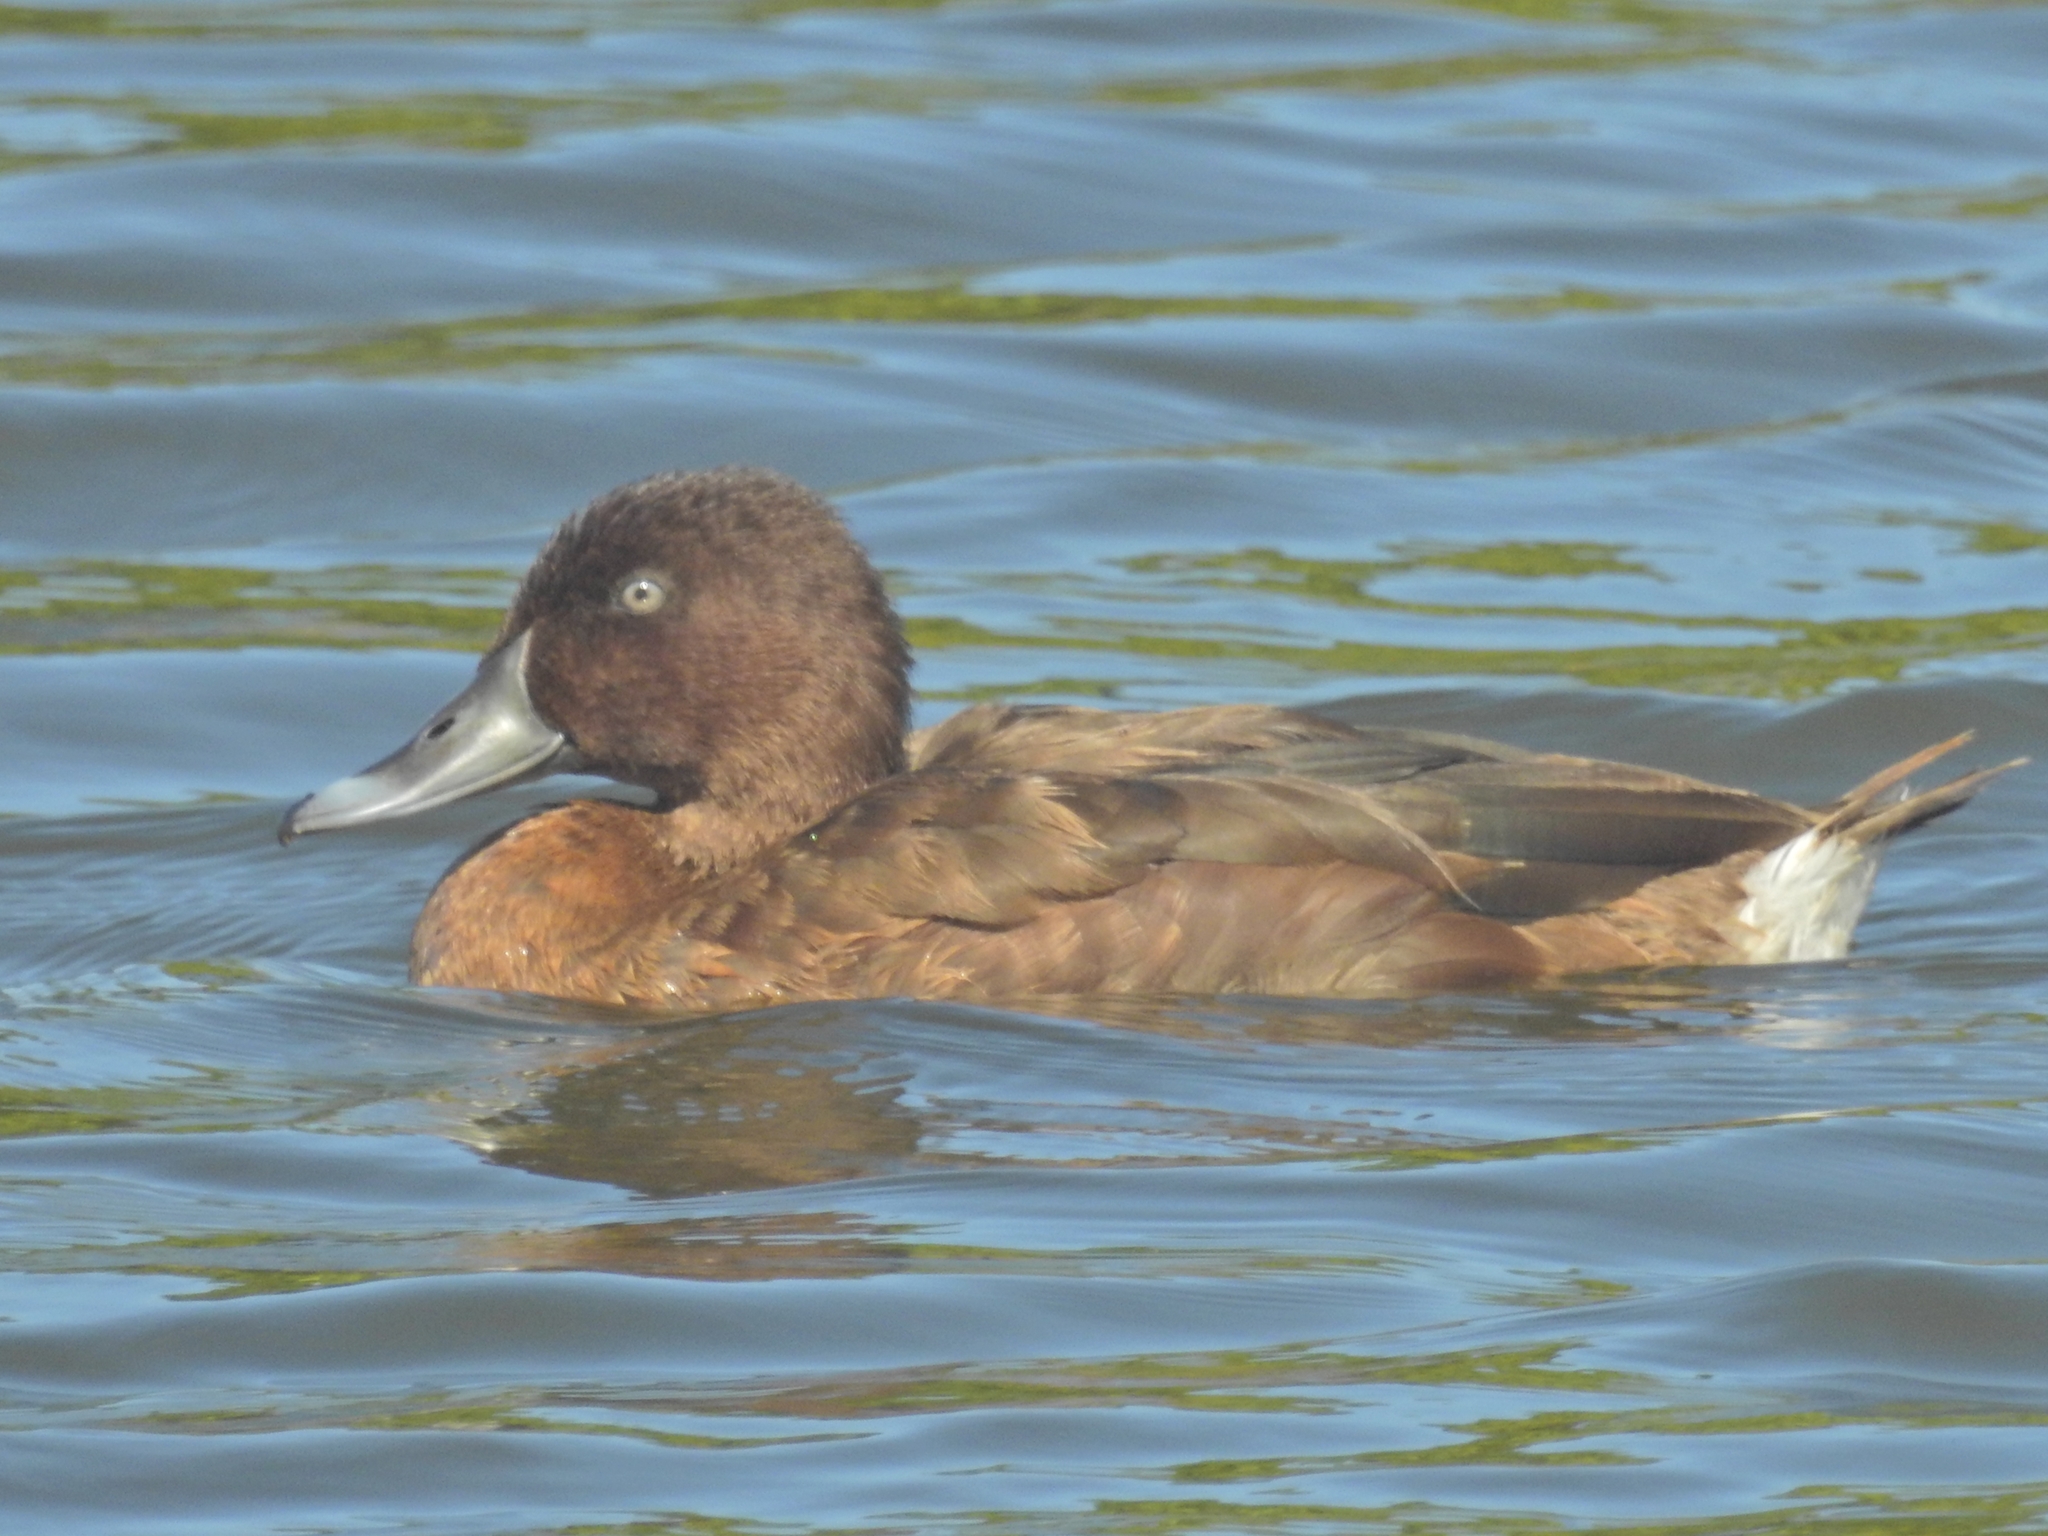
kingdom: Animalia
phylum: Chordata
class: Aves
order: Anseriformes
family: Anatidae
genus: Aythya
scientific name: Aythya australis
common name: Hardhead
